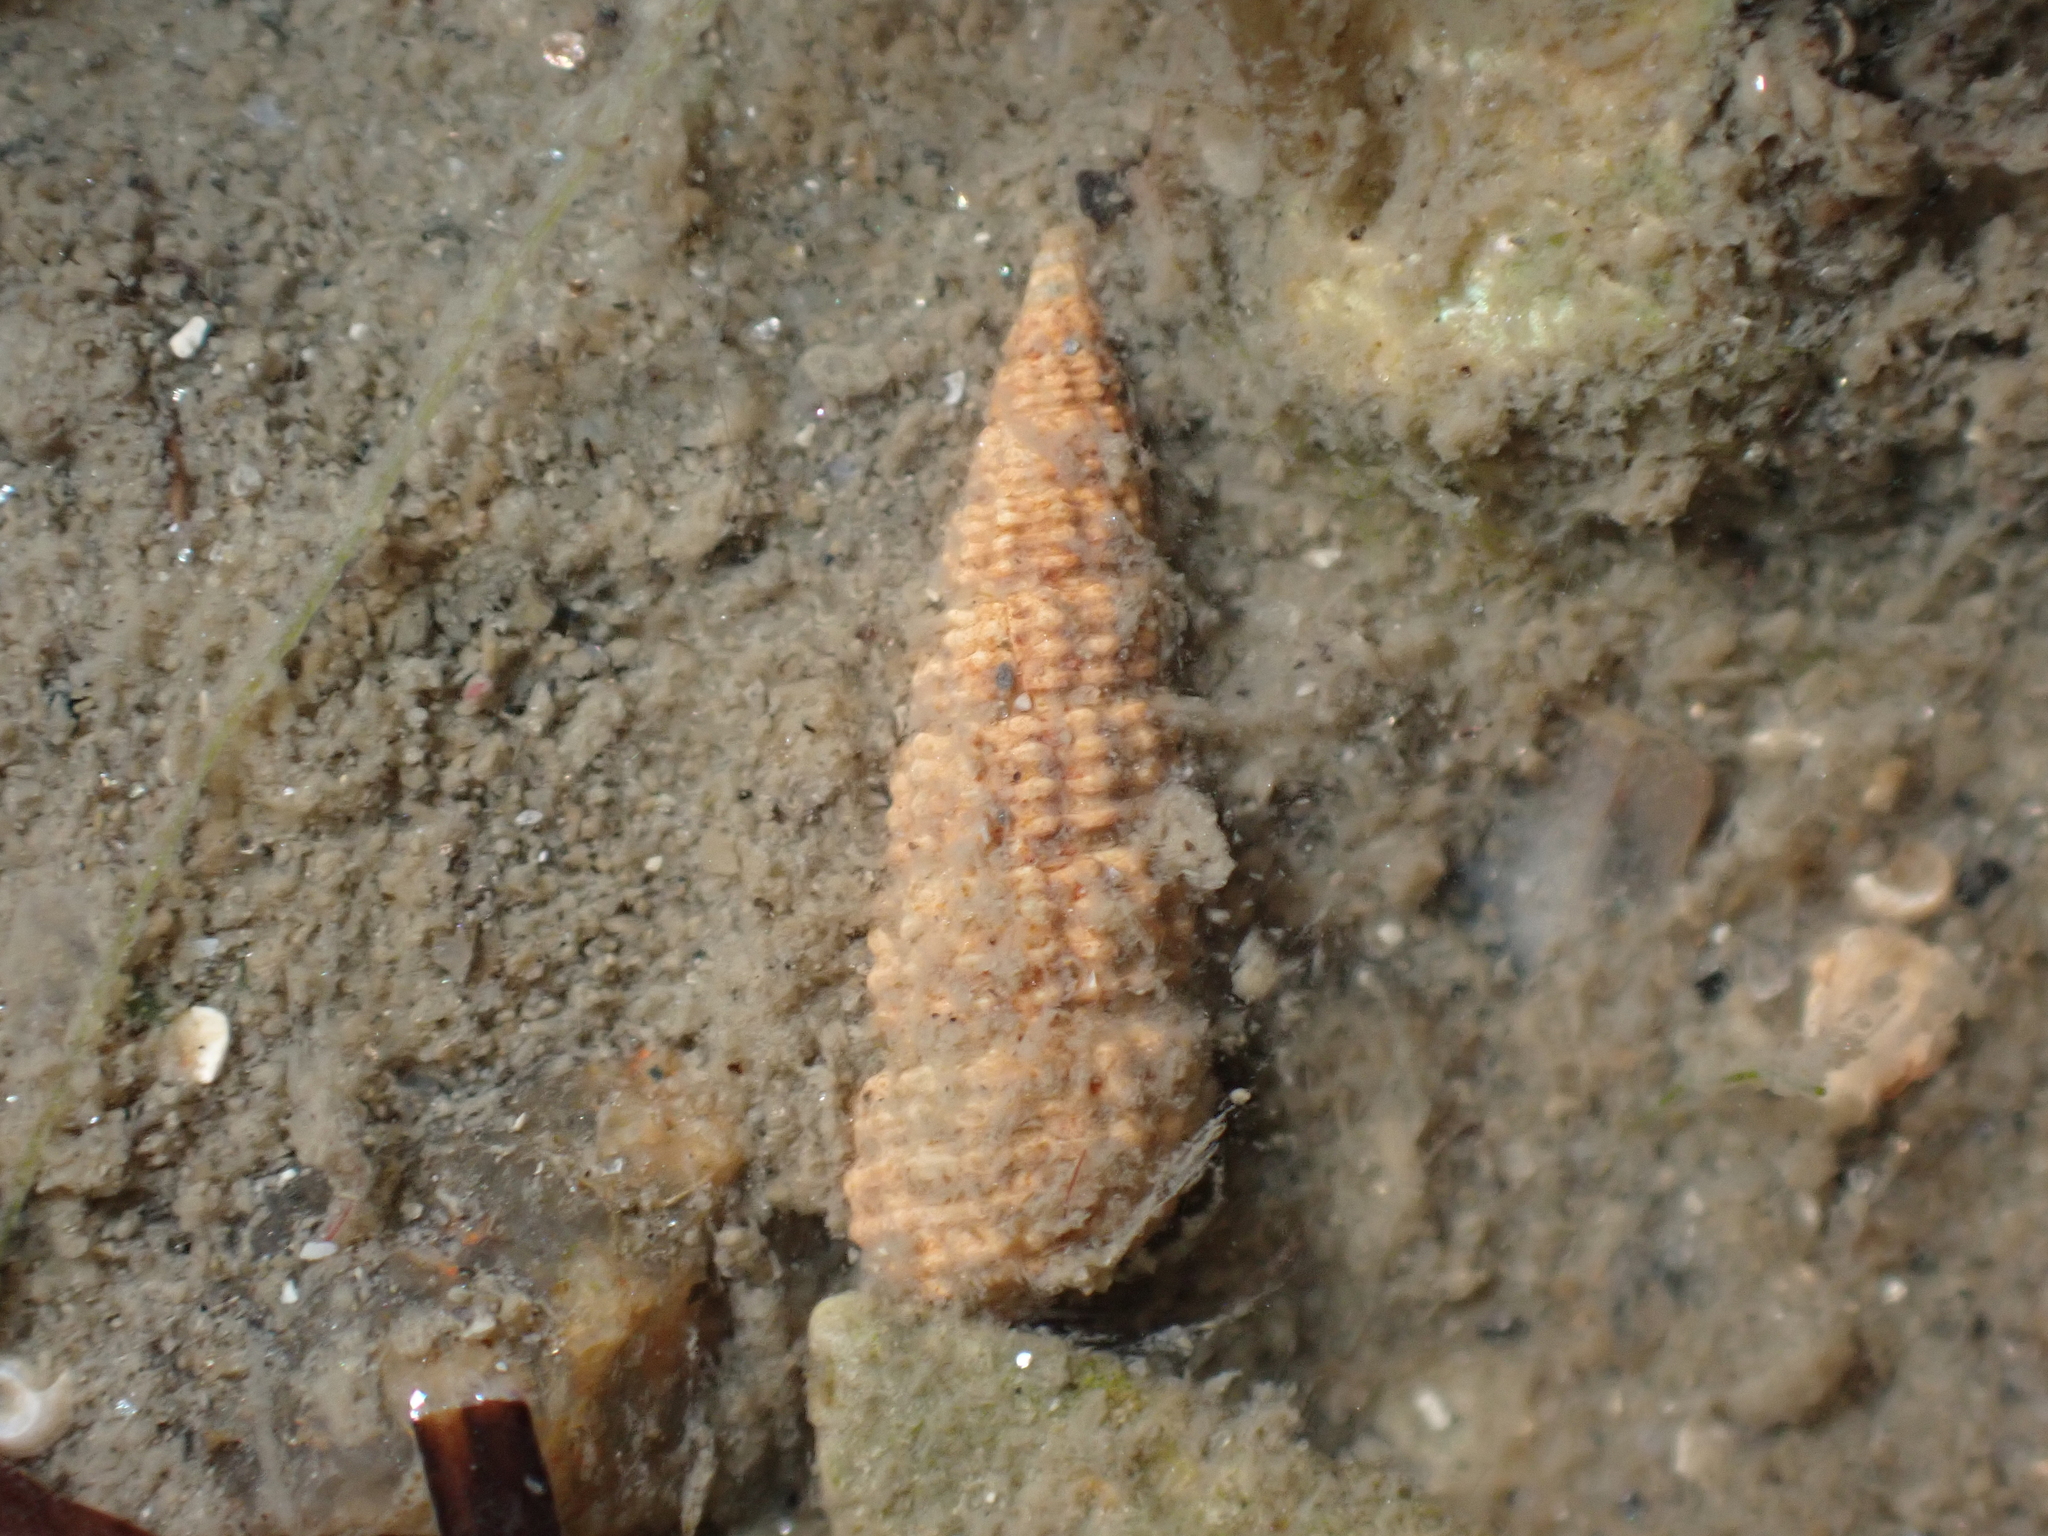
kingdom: Animalia
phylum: Mollusca
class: Gastropoda
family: Cerithiidae
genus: Bittium
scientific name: Bittium reticulatum
